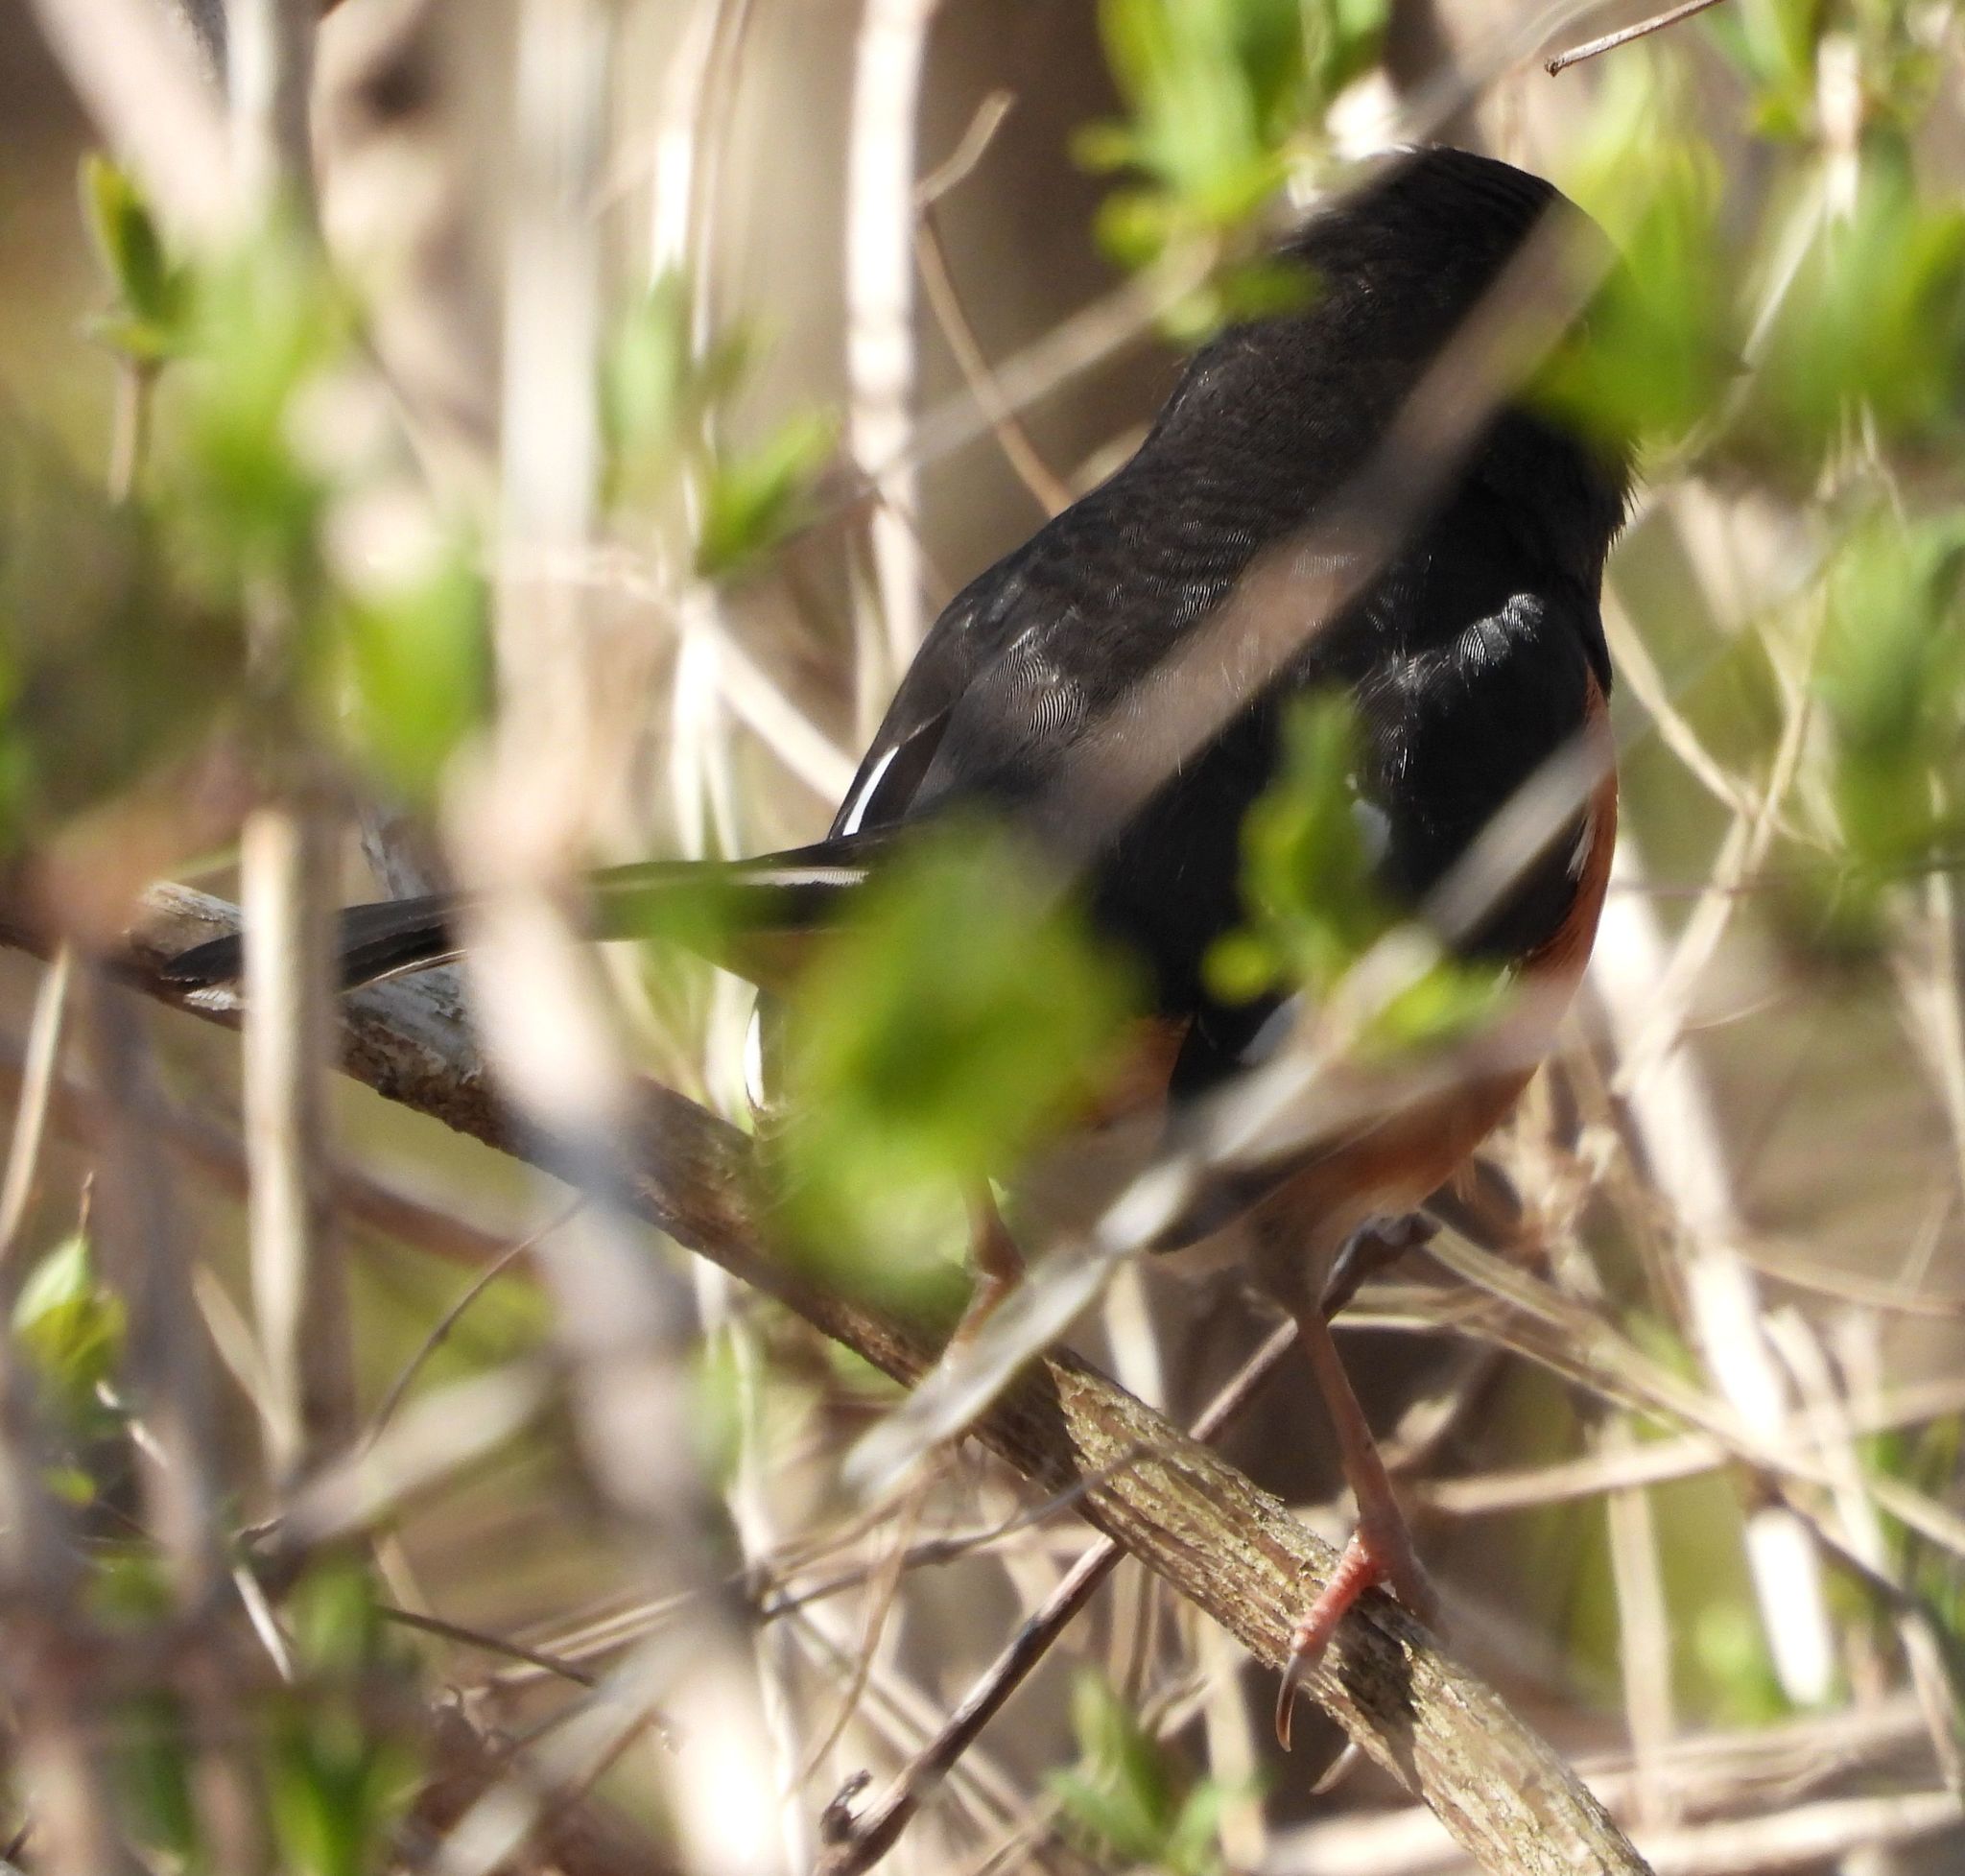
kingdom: Animalia
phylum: Chordata
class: Aves
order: Passeriformes
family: Passerellidae
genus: Pipilo
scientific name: Pipilo erythrophthalmus
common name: Eastern towhee
